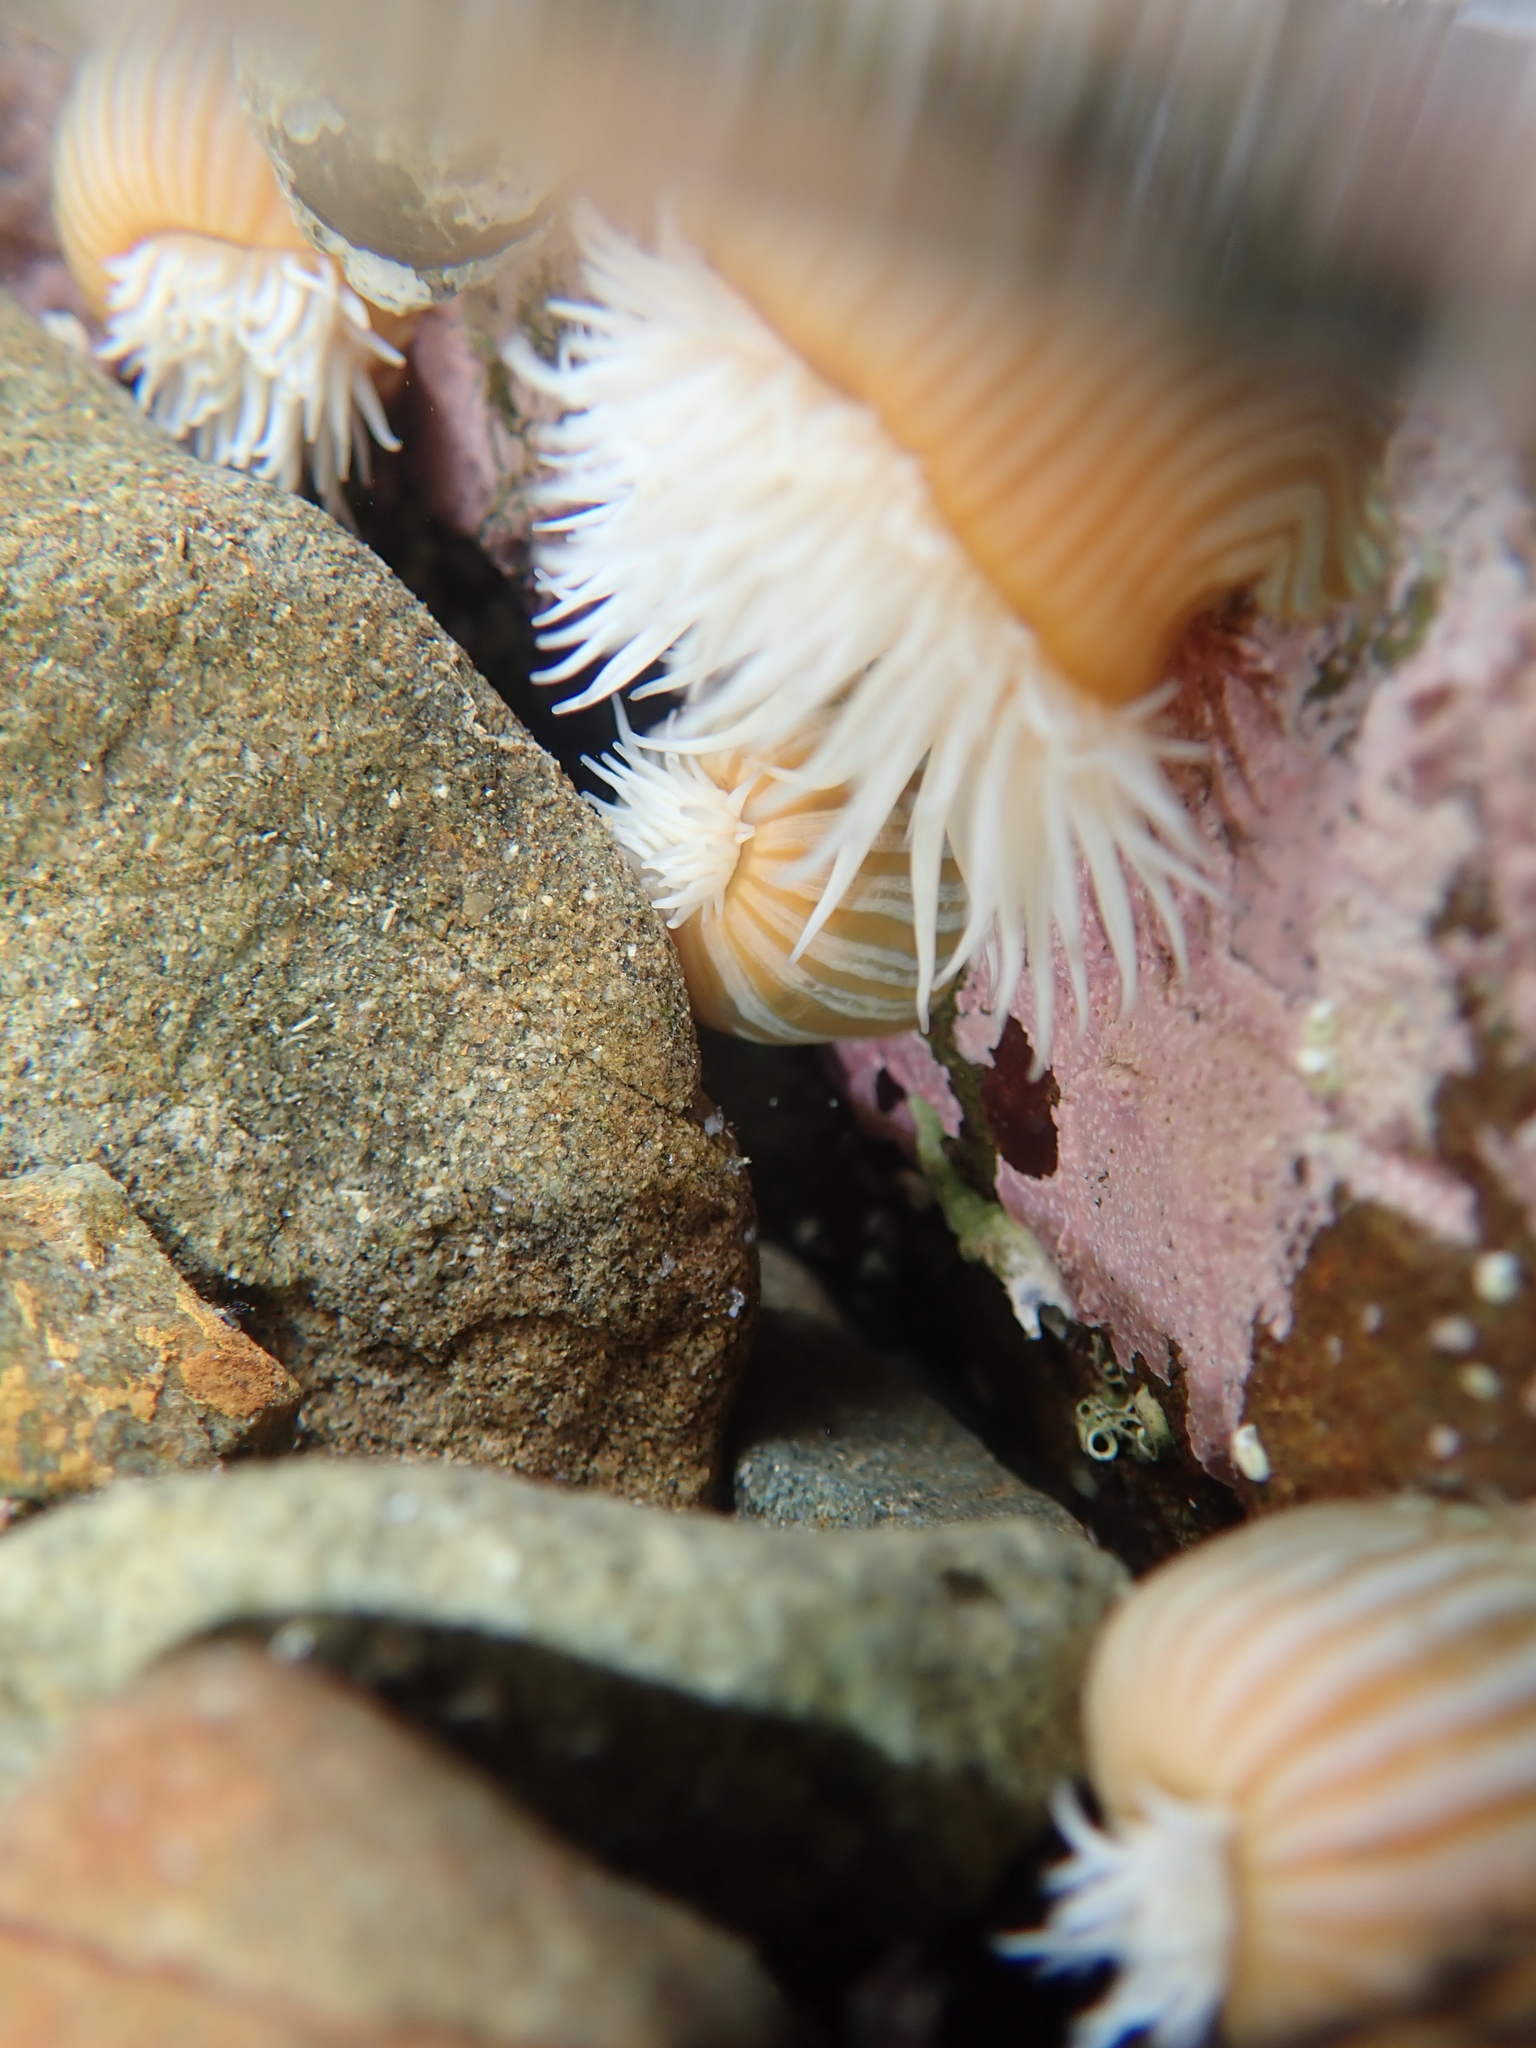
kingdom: Animalia
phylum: Cnidaria
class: Anthozoa
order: Actiniaria
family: Sagartiidae
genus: Anthothoe
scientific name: Anthothoe albocincta
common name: Orange striped anemone
